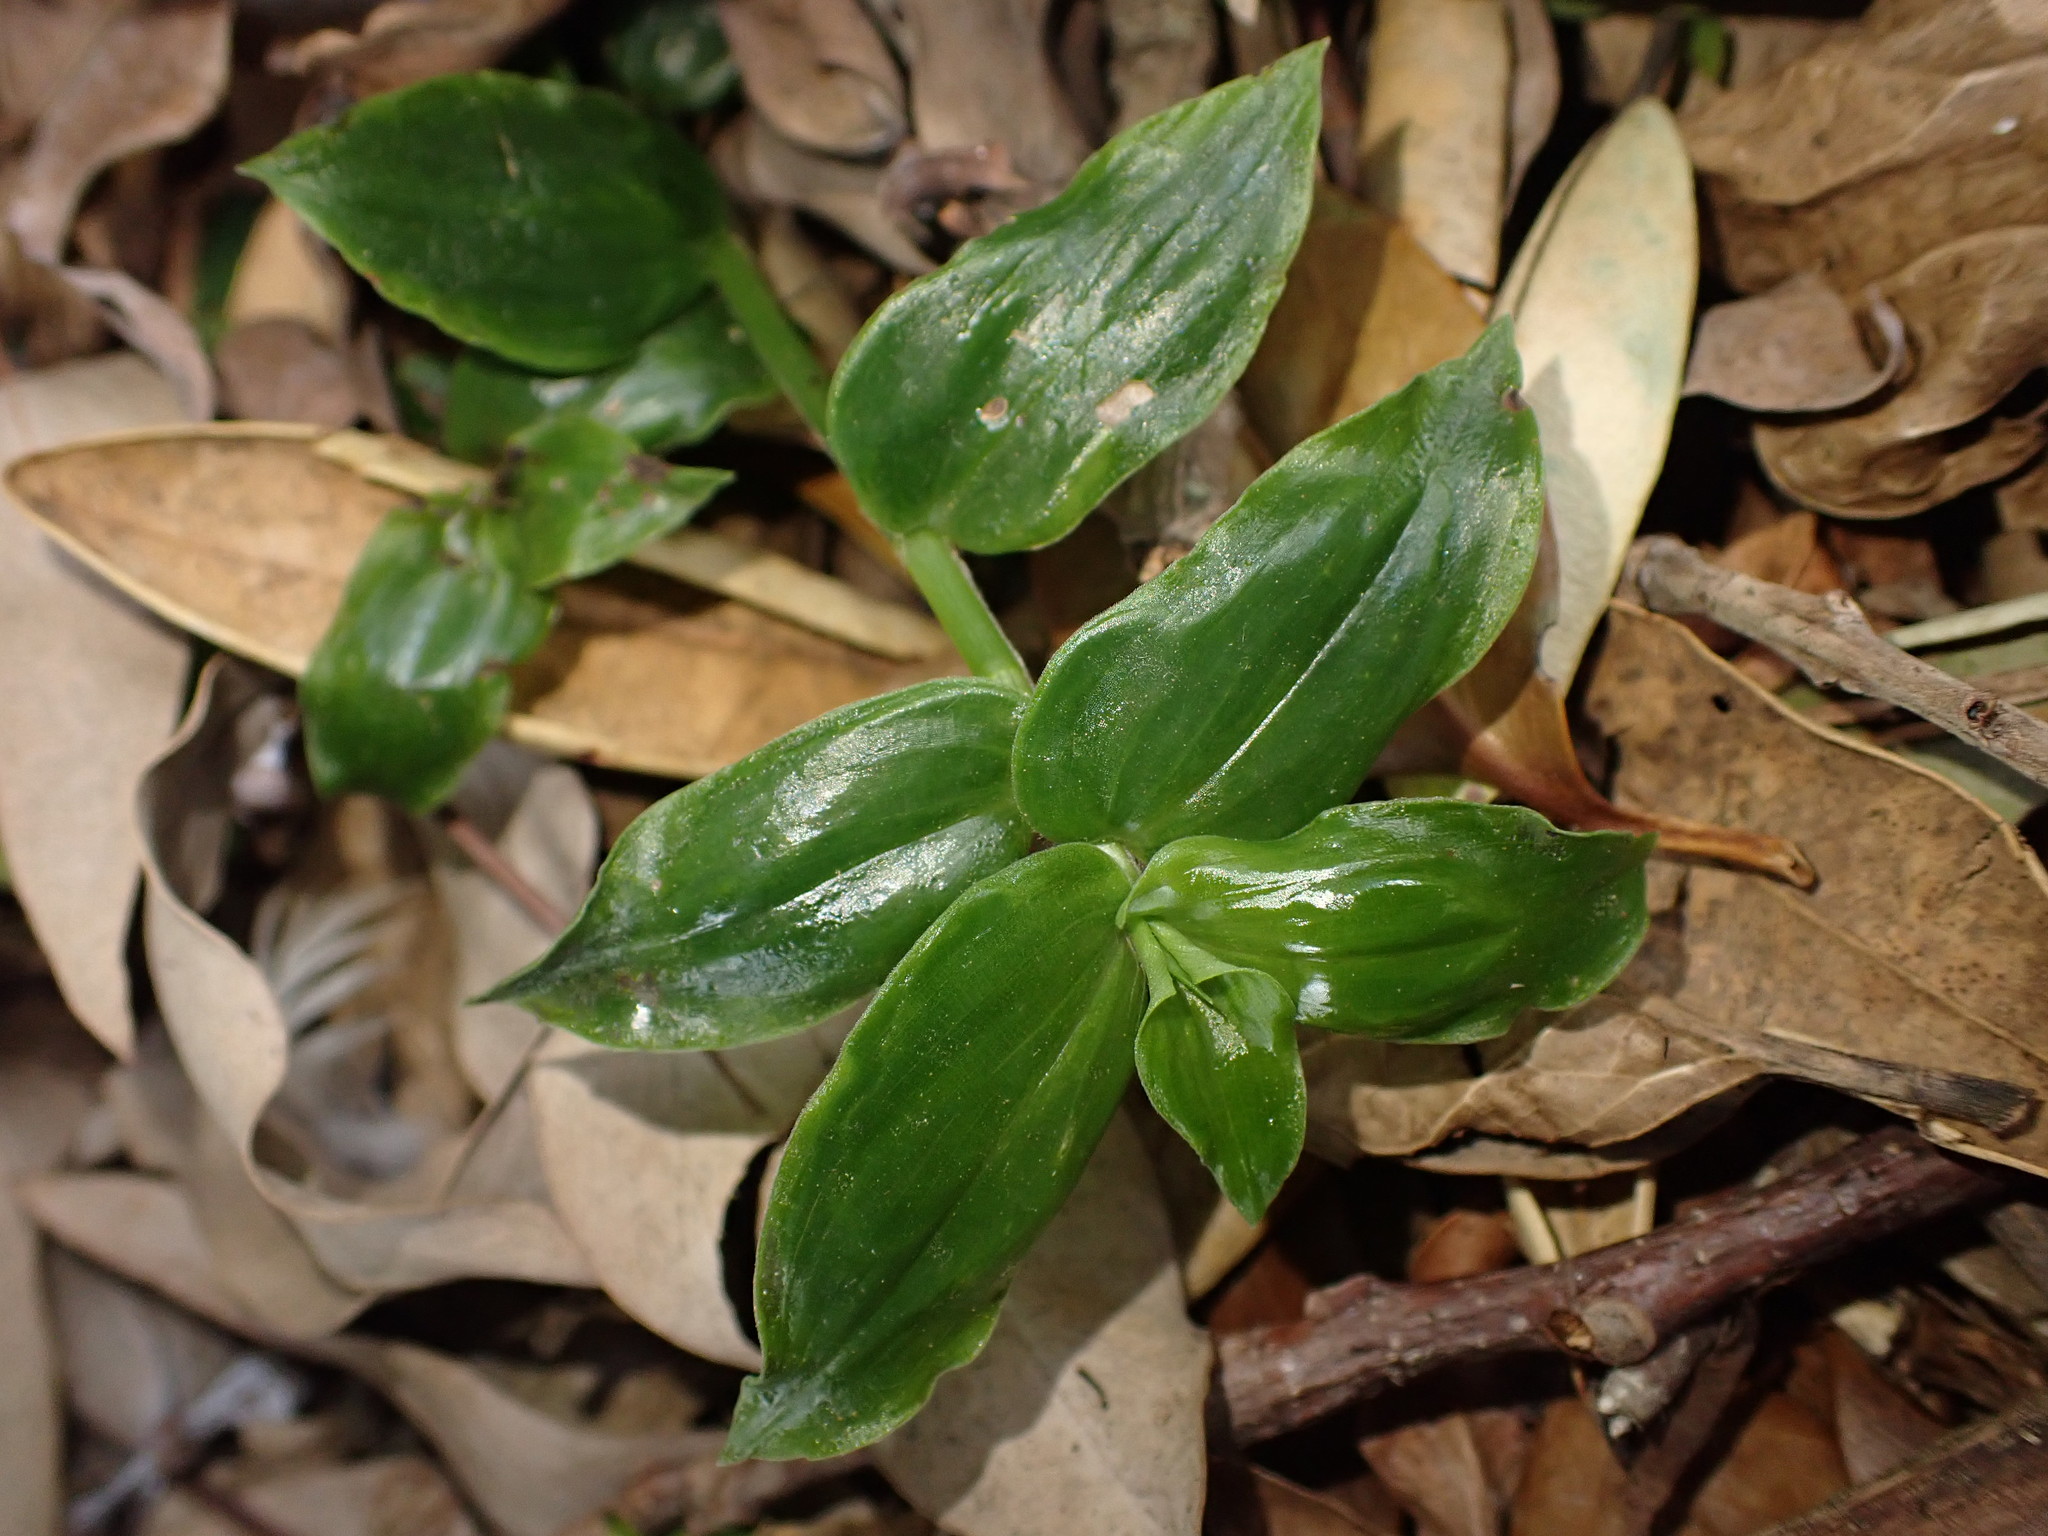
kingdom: Plantae
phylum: Tracheophyta
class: Liliopsida
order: Commelinales
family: Commelinaceae
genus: Tradescantia
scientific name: Tradescantia fluminensis
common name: Wandering-jew
